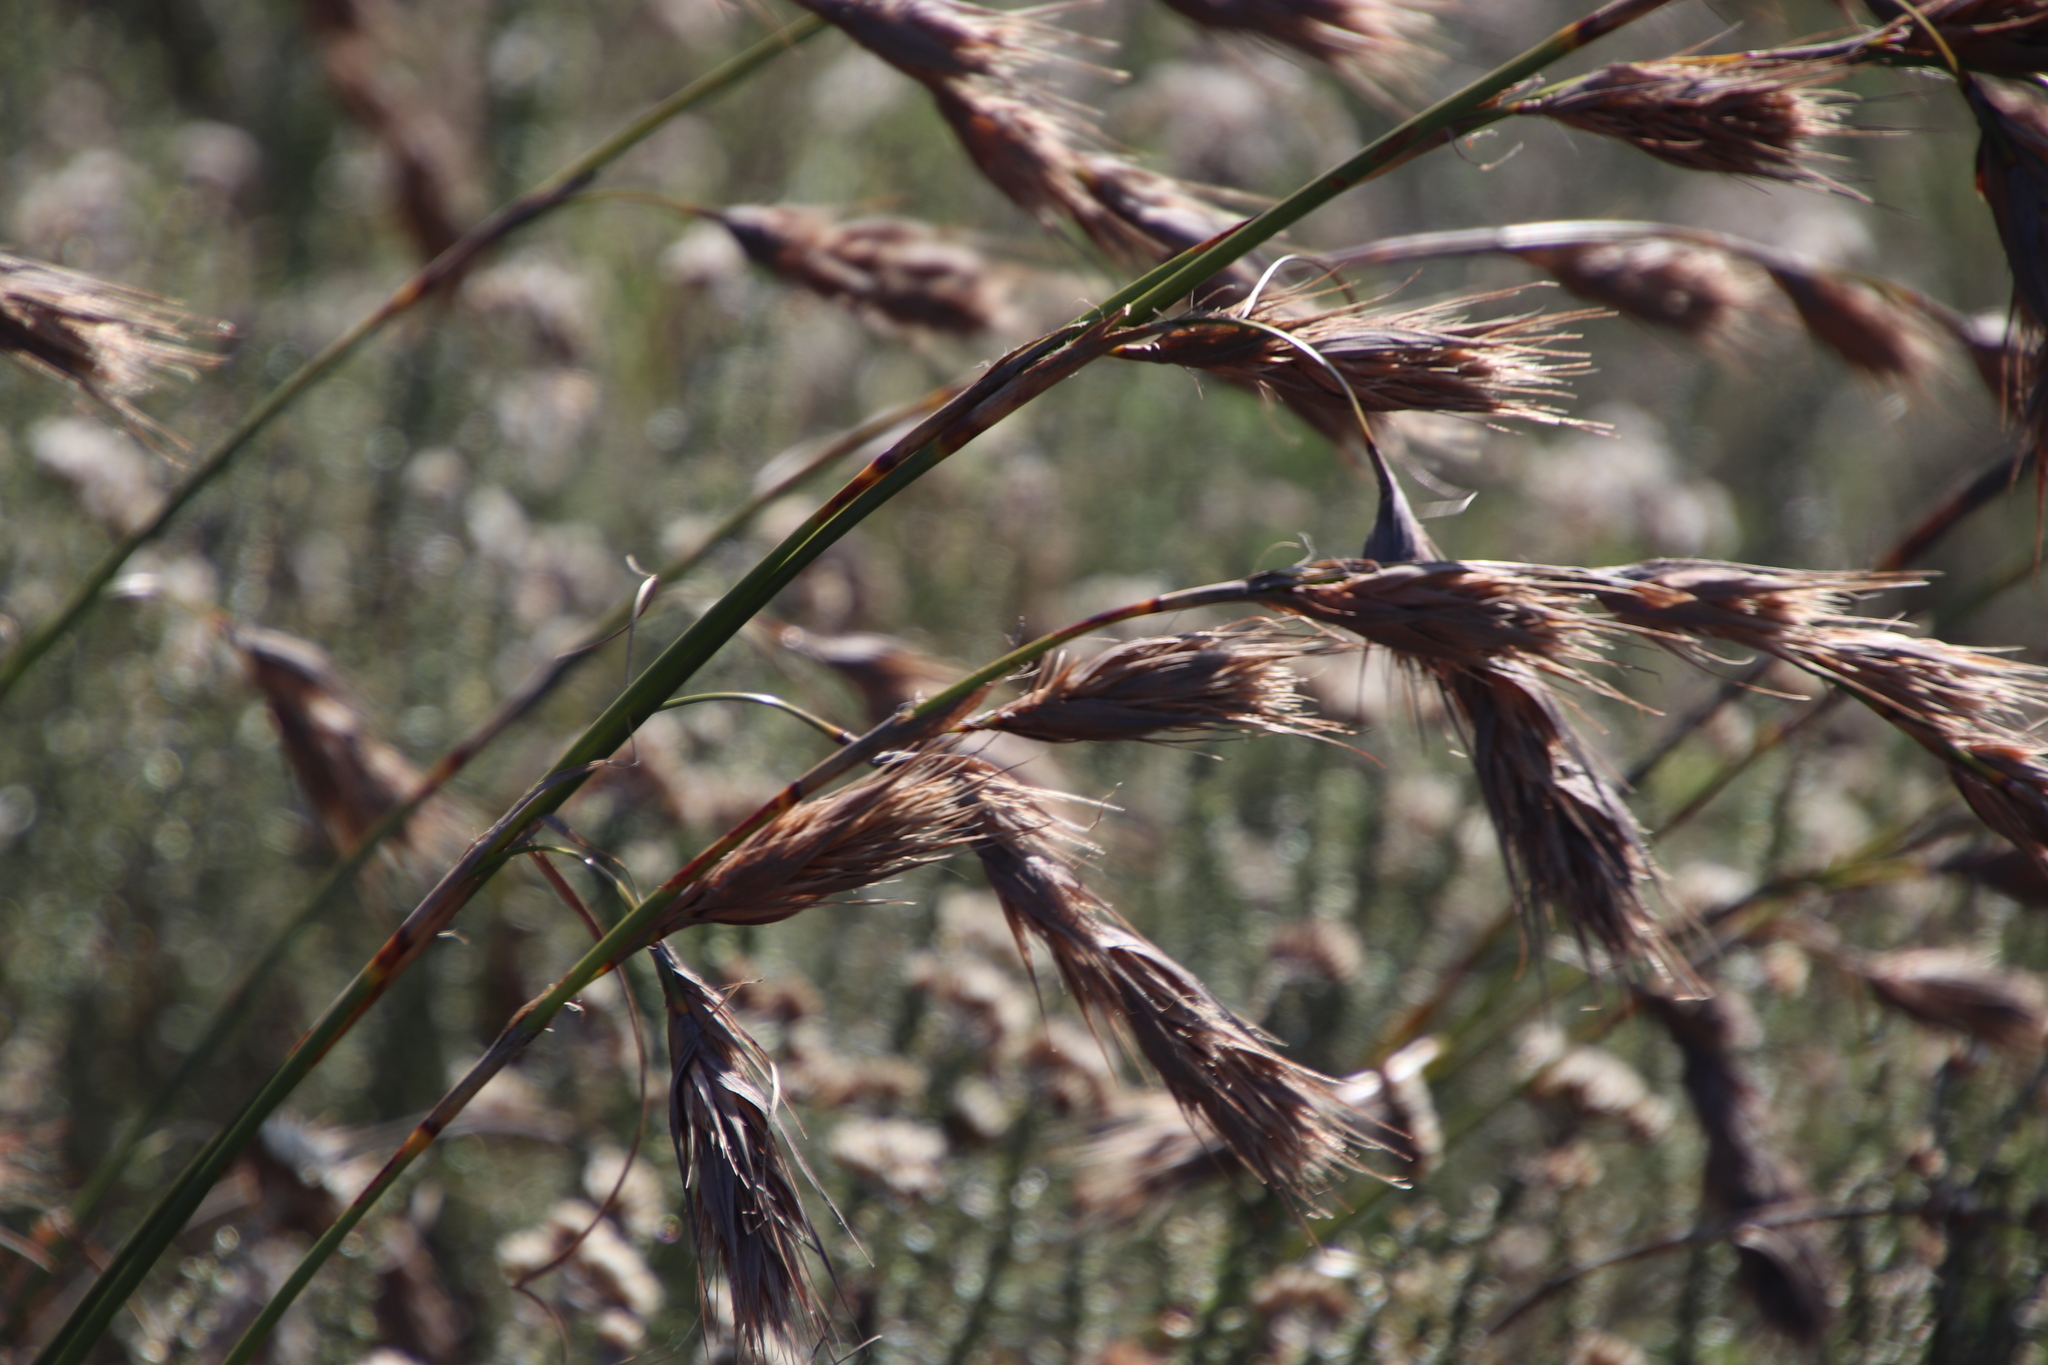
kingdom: Plantae
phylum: Tracheophyta
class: Liliopsida
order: Poales
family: Cyperaceae
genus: Tetraria
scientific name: Tetraria bromoides
